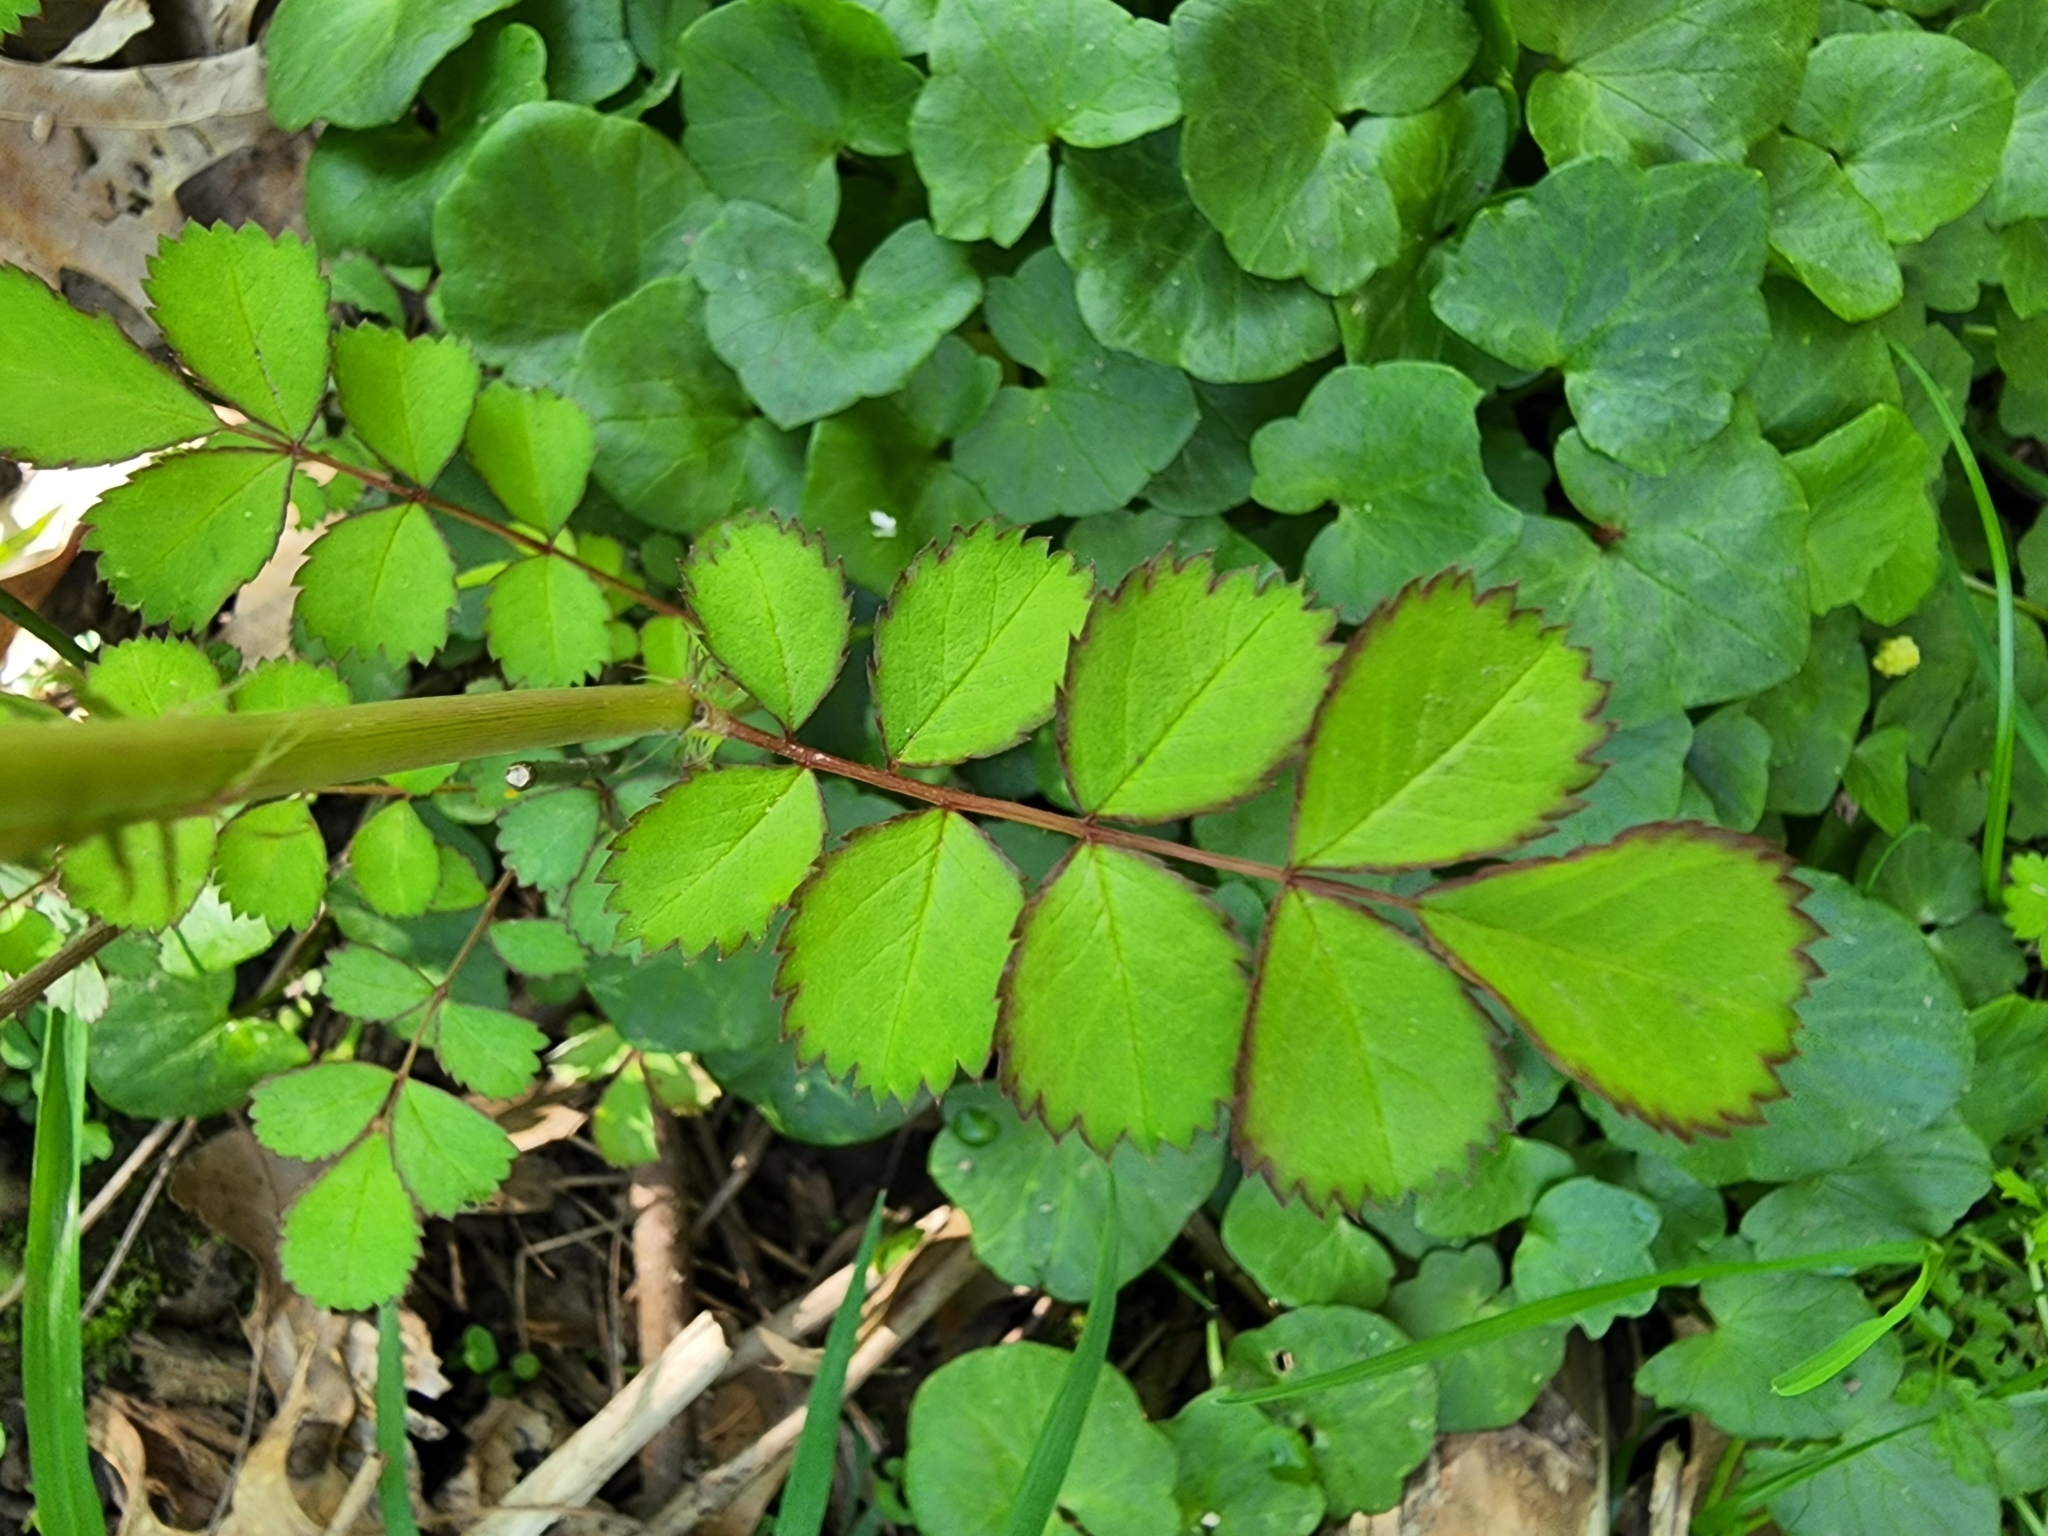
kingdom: Plantae
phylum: Tracheophyta
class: Magnoliopsida
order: Rosales
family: Rosaceae
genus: Rosa
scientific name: Rosa multiflora
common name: Multiflora rose
